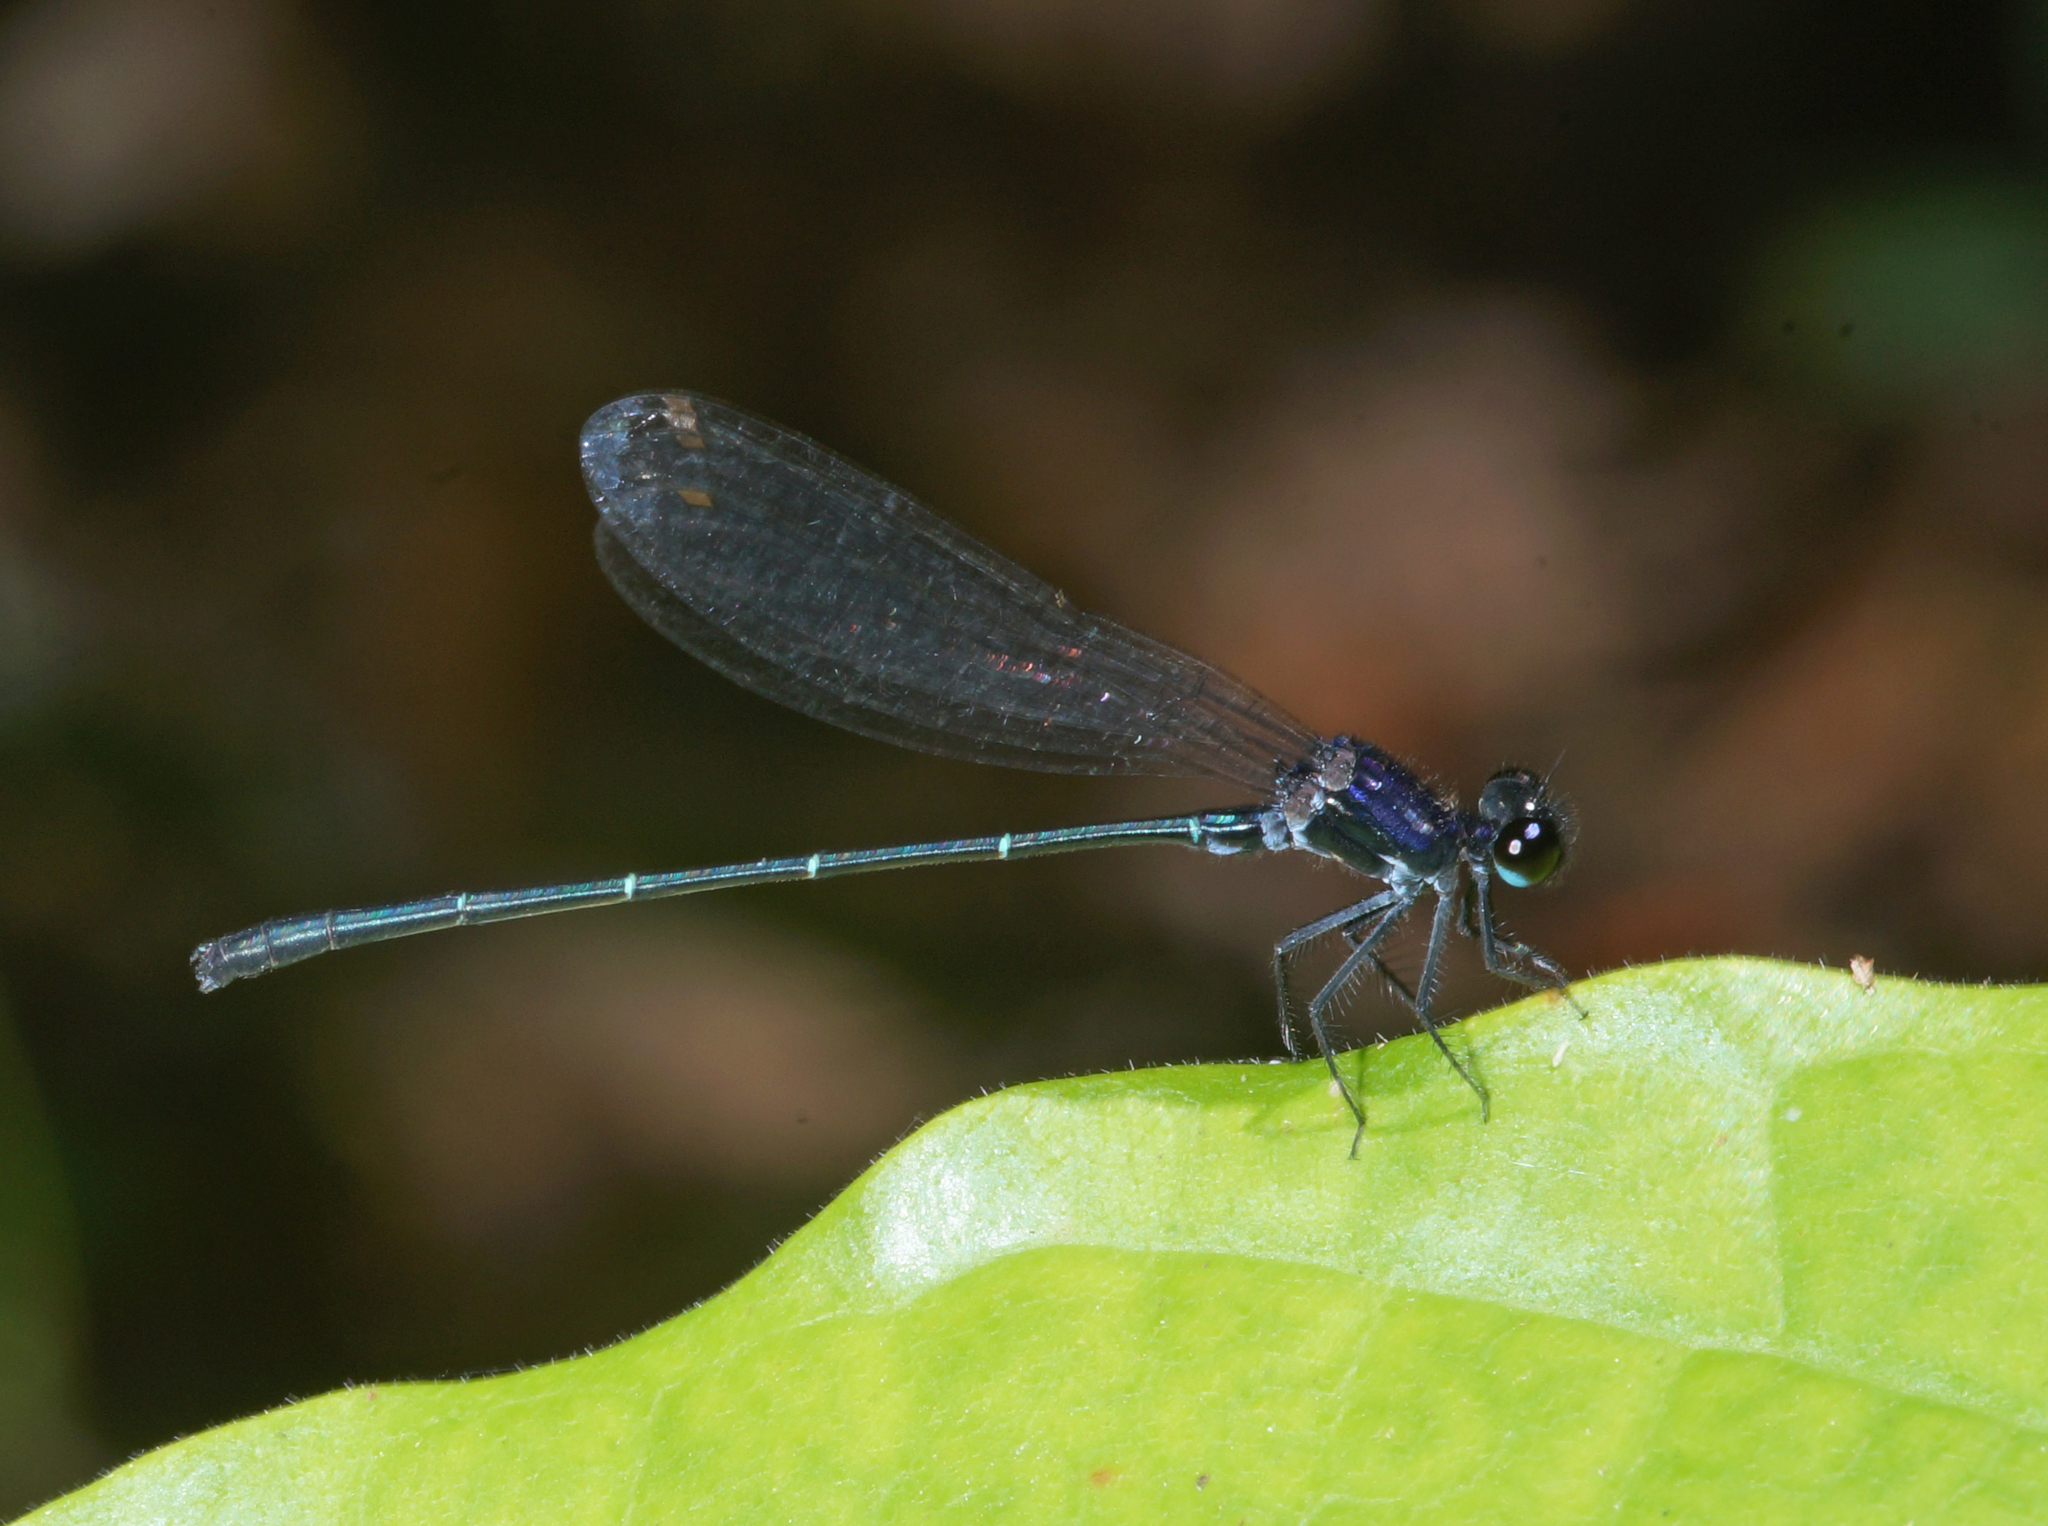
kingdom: Animalia
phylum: Arthropoda
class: Insecta
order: Odonata
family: Platycnemididae
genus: Onychargia
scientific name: Onychargia atrocyana
